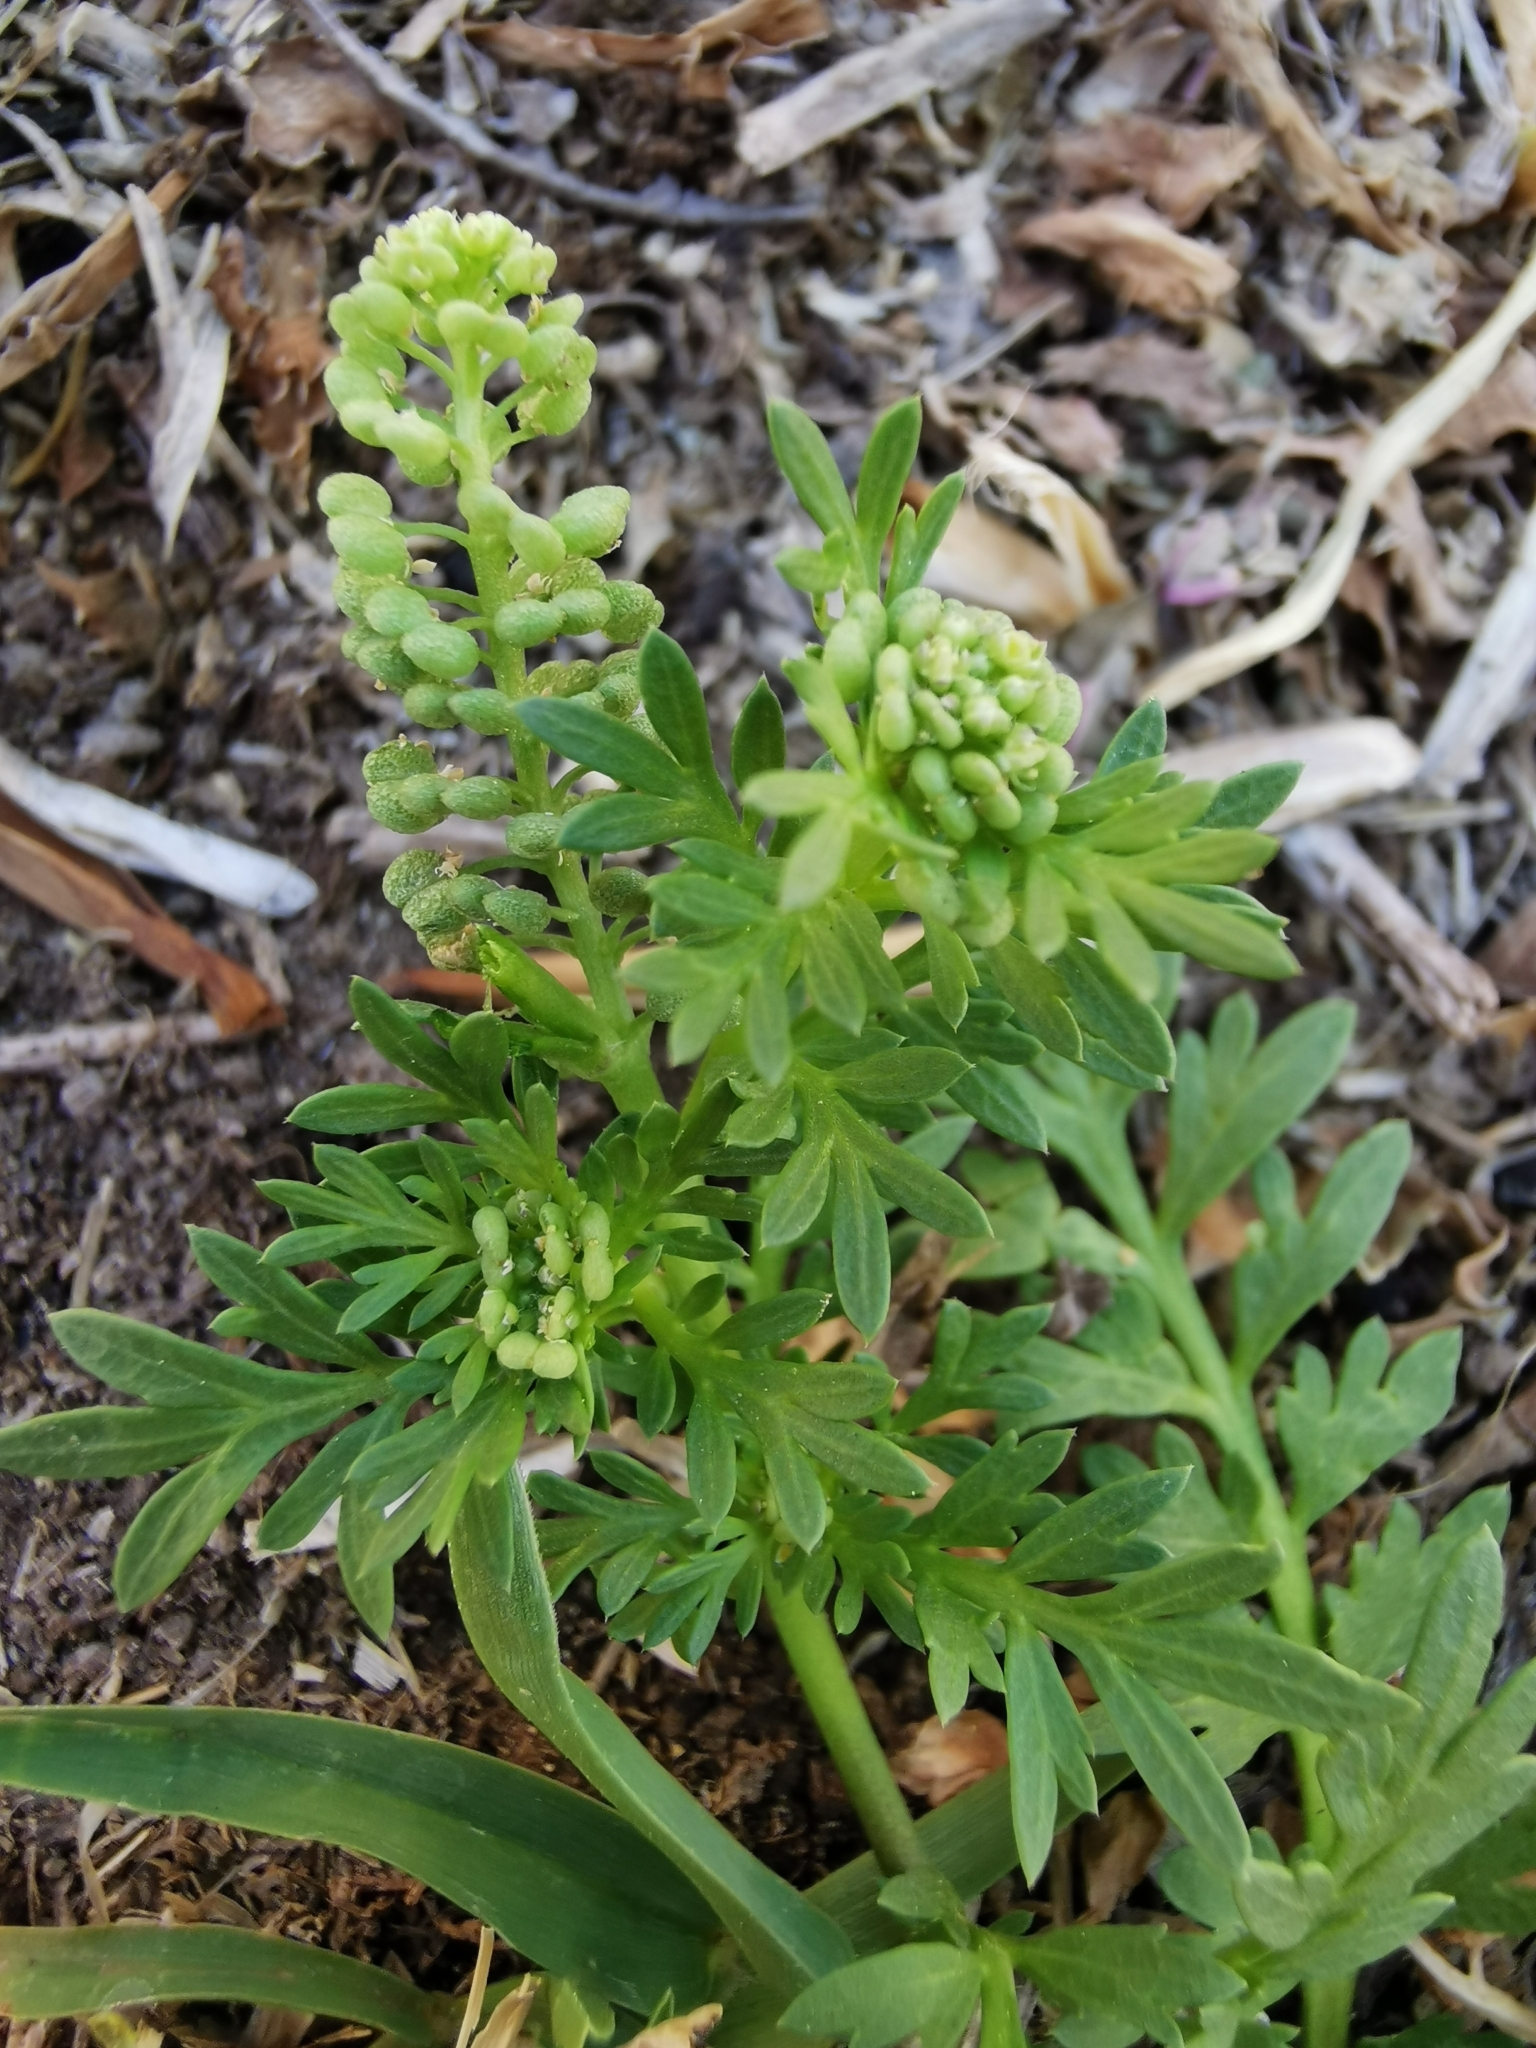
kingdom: Plantae
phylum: Tracheophyta
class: Magnoliopsida
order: Brassicales
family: Brassicaceae
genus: Lepidium
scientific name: Lepidium didymum
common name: Lesser swinecress
